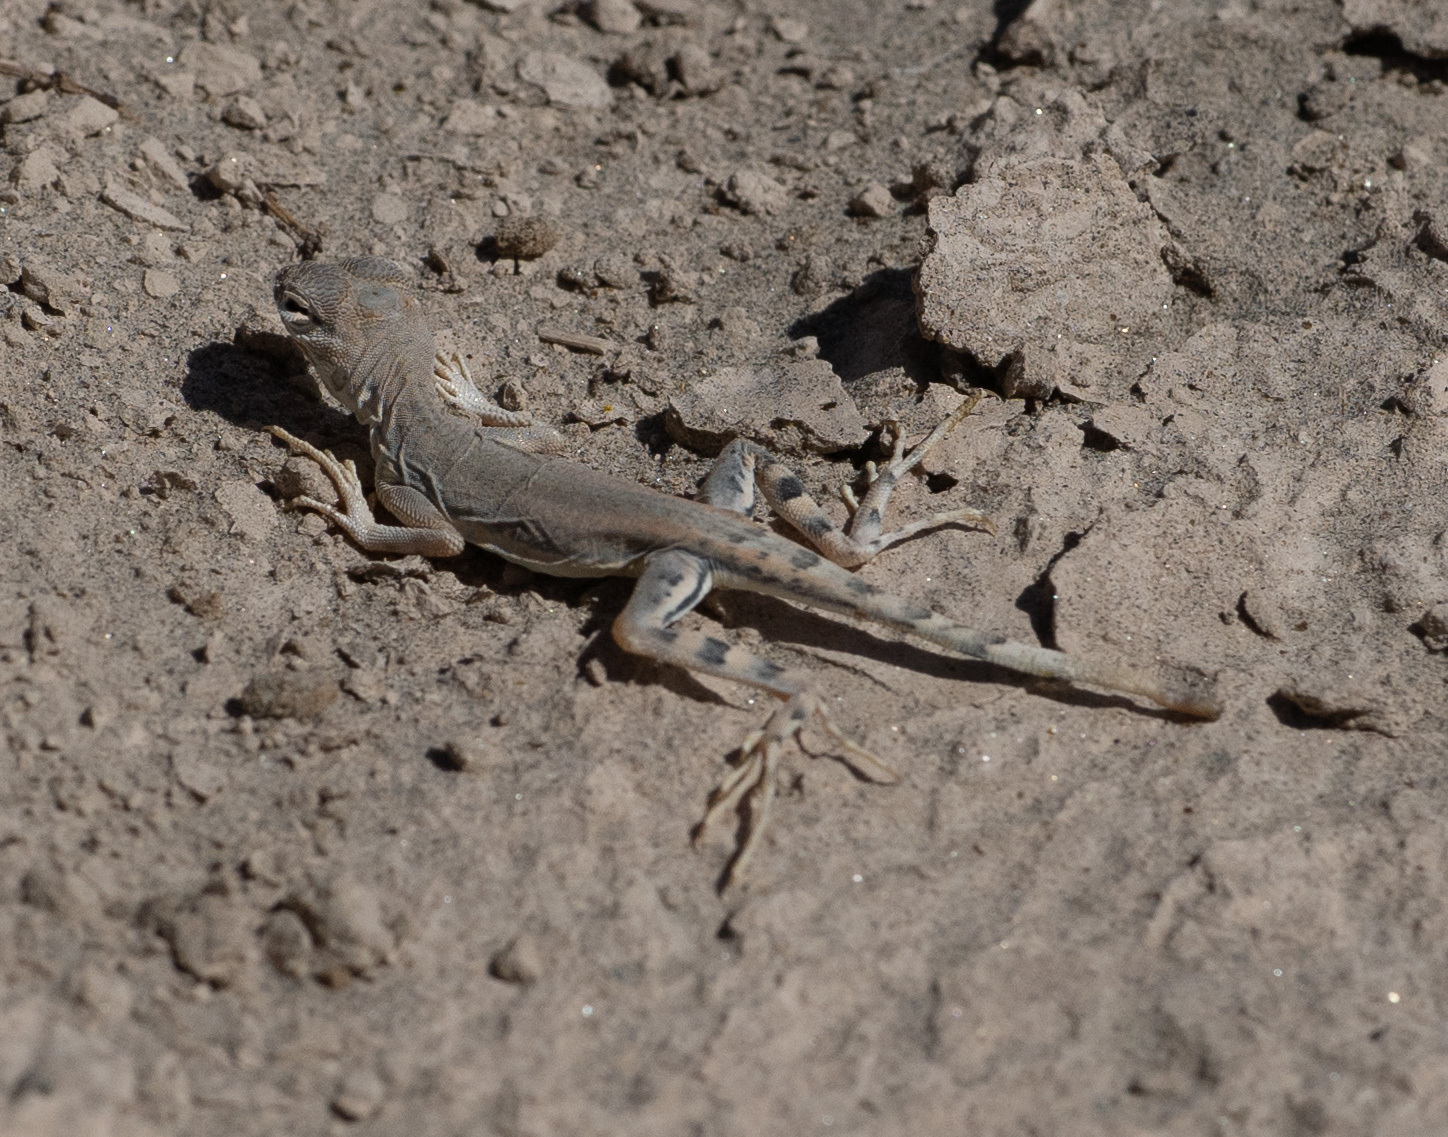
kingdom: Animalia
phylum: Chordata
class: Squamata
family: Phrynosomatidae
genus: Callisaurus
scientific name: Callisaurus draconoides
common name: Zebra-tailed lizard
